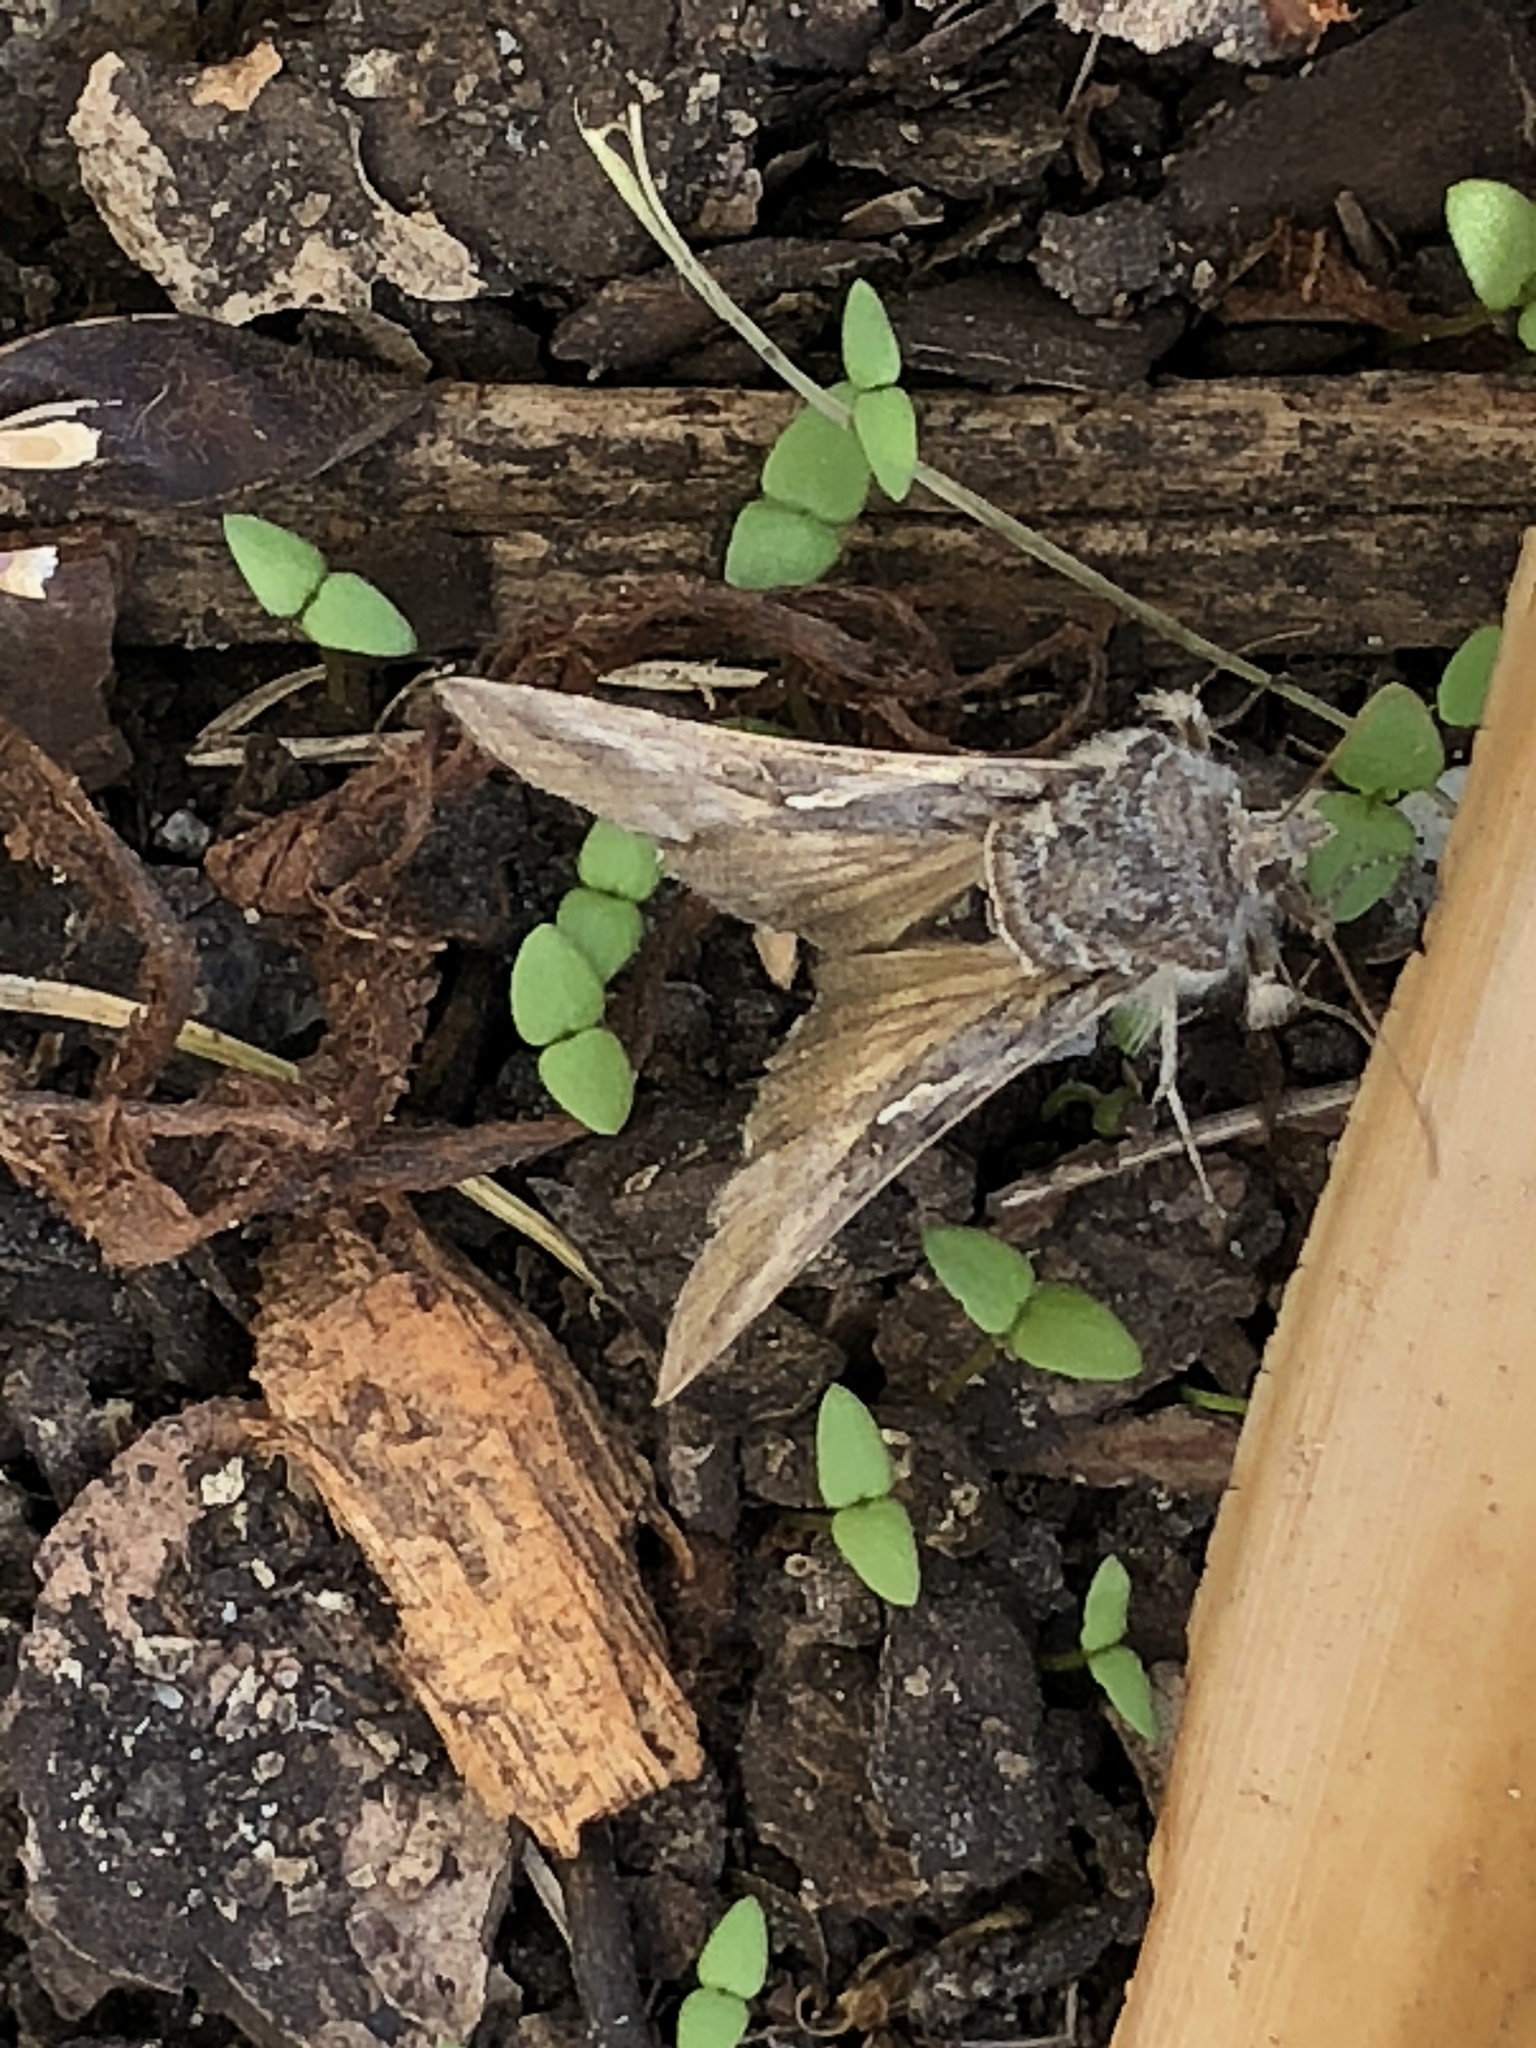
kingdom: Animalia
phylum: Arthropoda
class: Insecta
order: Lepidoptera
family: Noctuidae
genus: Rachiplusia
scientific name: Rachiplusia ou
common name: Gray looper moth
